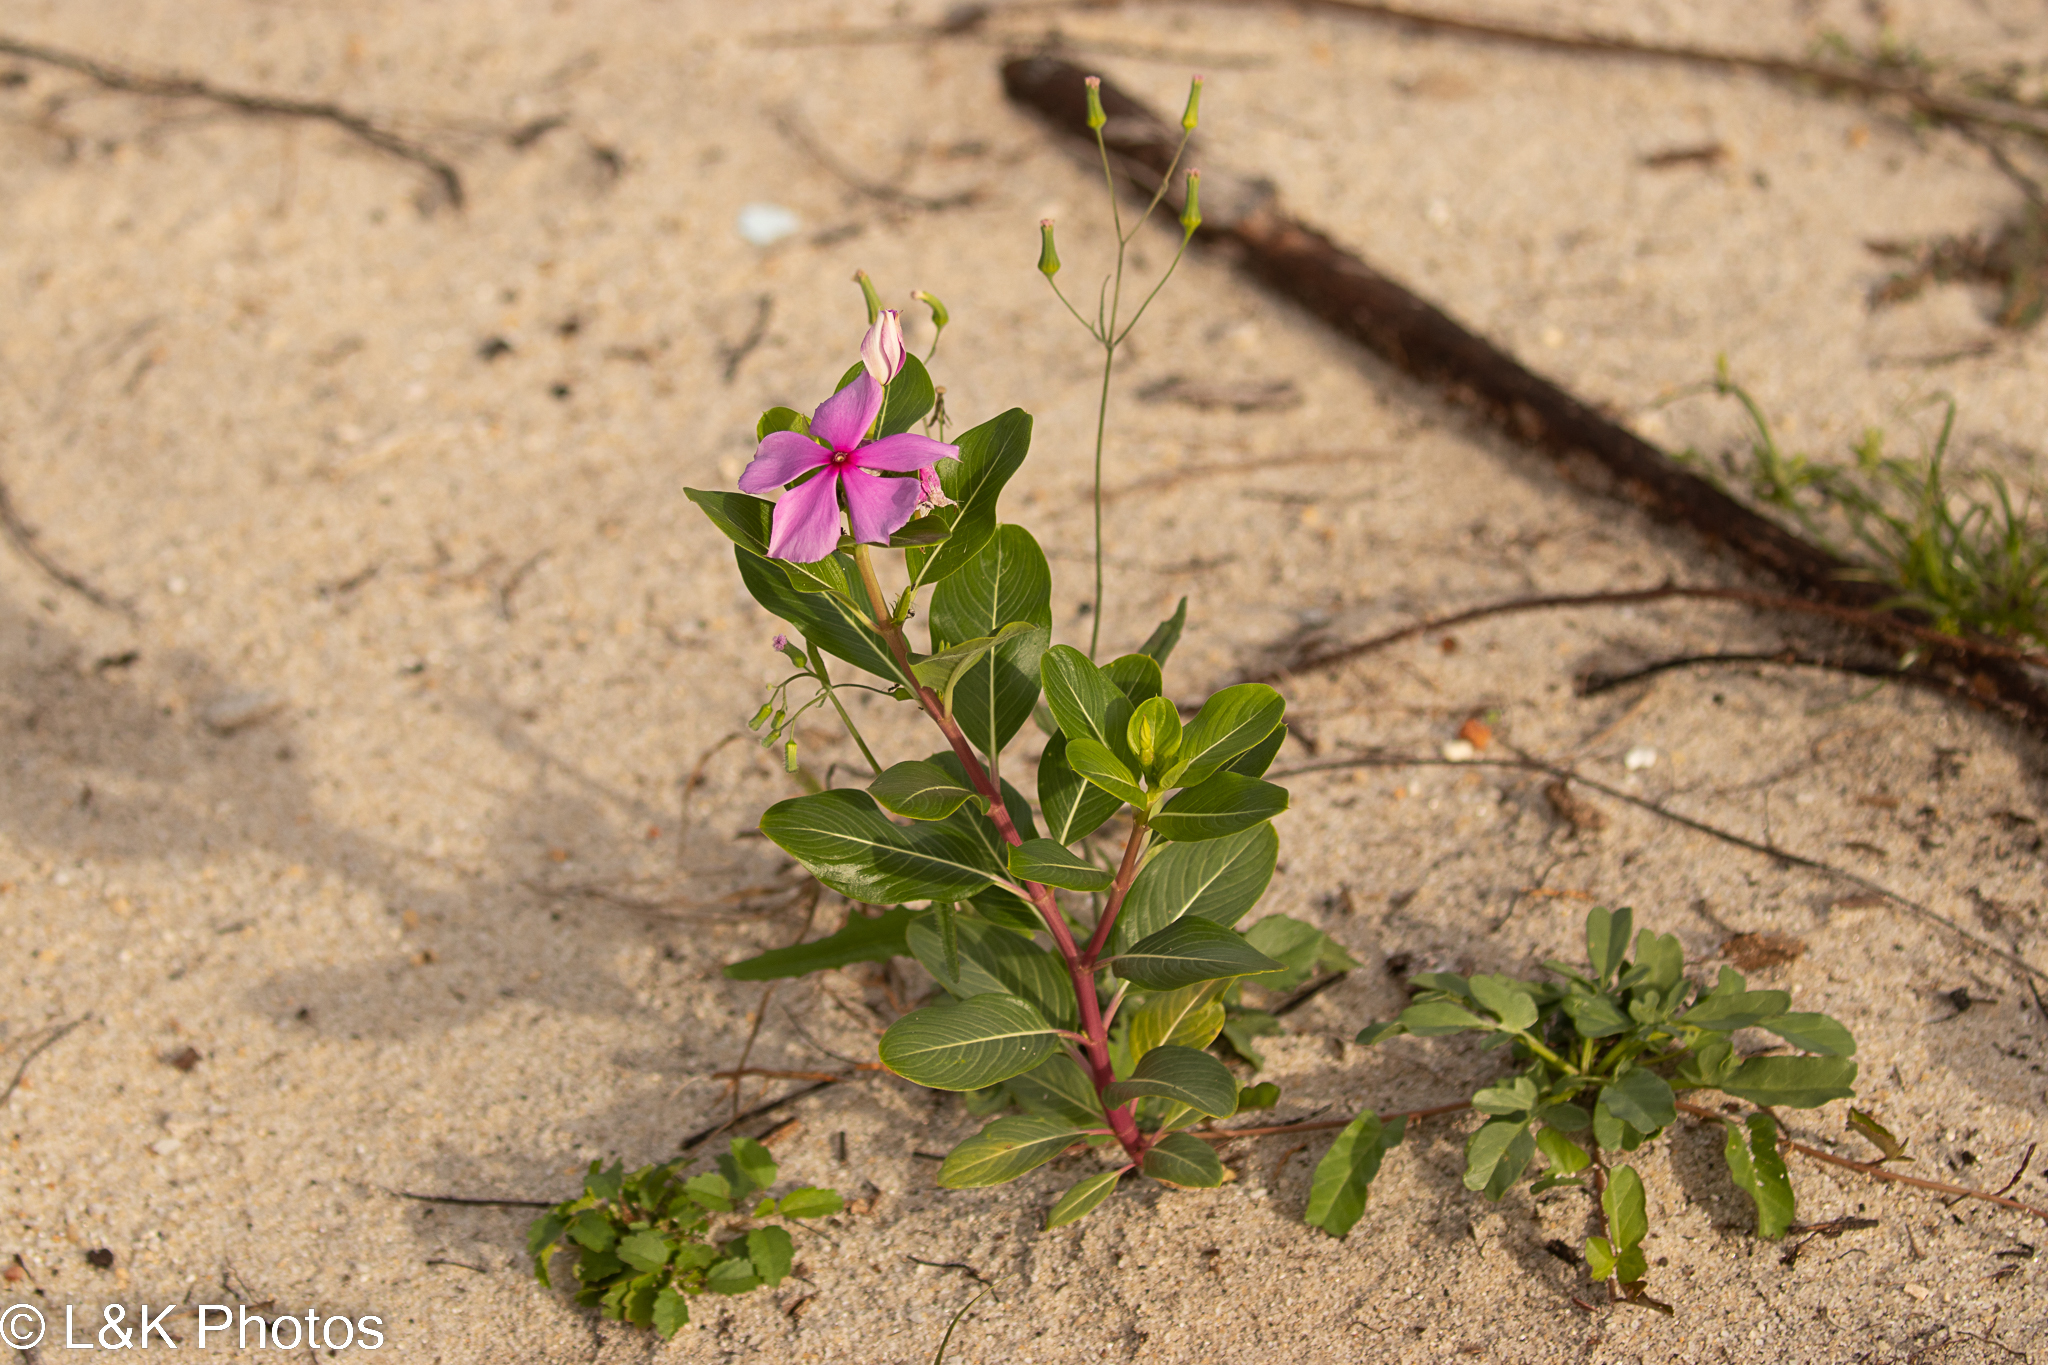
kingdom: Plantae
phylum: Tracheophyta
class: Magnoliopsida
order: Gentianales
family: Apocynaceae
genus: Catharanthus
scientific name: Catharanthus roseus
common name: Madagascar periwinkle
